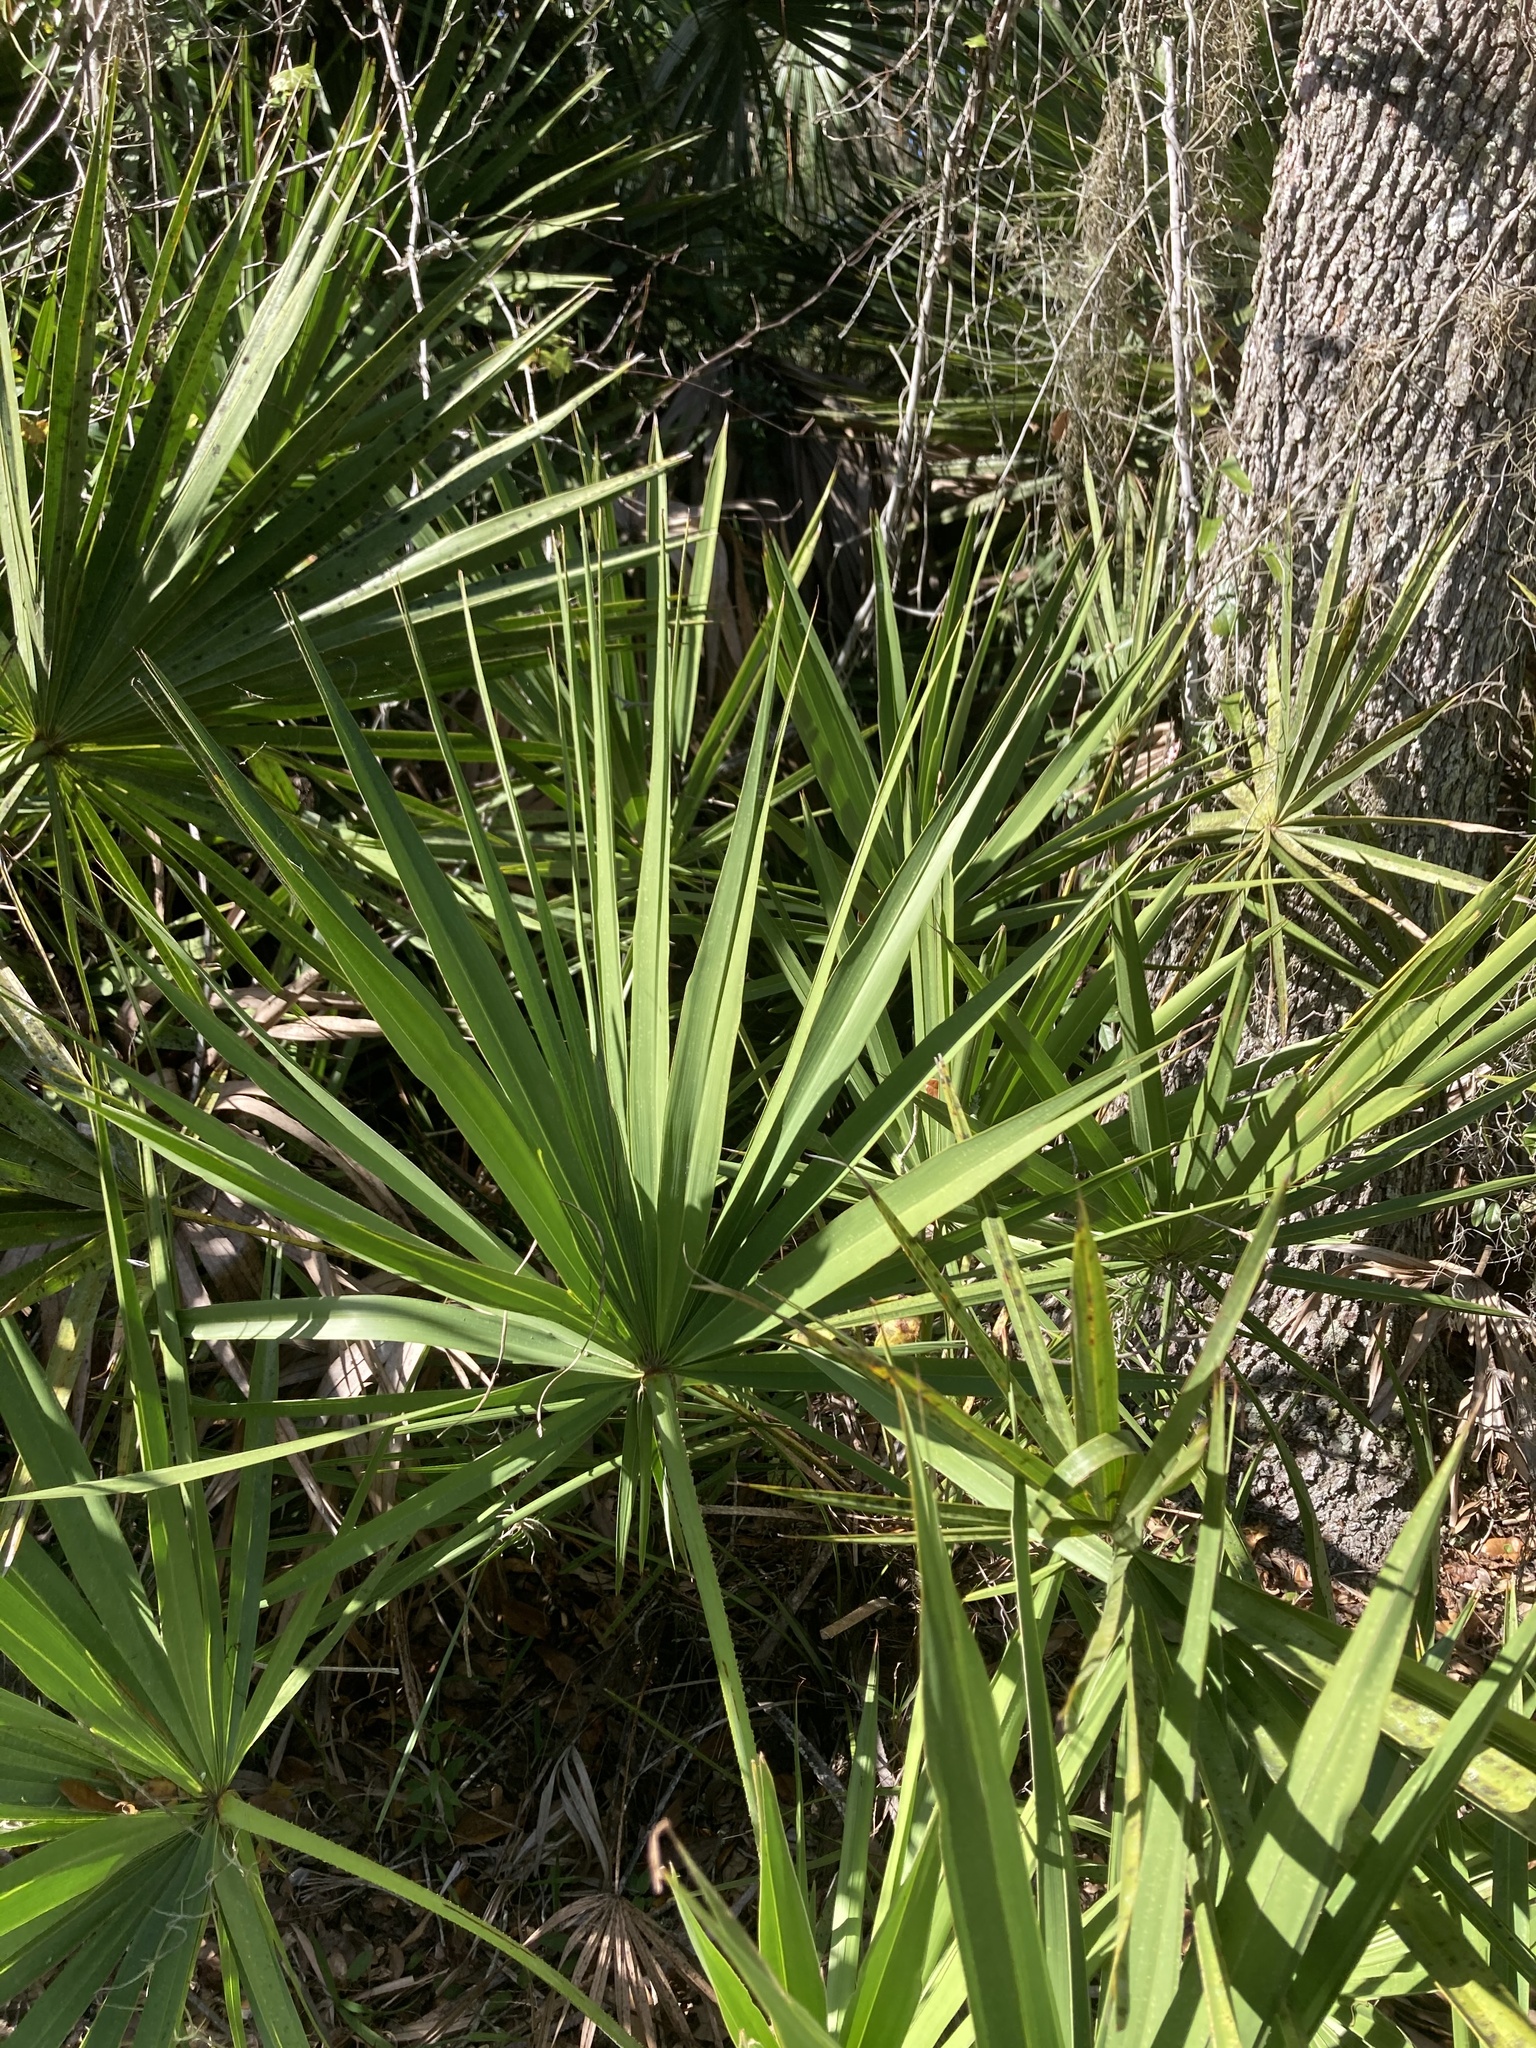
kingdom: Plantae
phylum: Tracheophyta
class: Liliopsida
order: Arecales
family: Arecaceae
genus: Serenoa
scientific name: Serenoa repens
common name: Saw-palmetto
